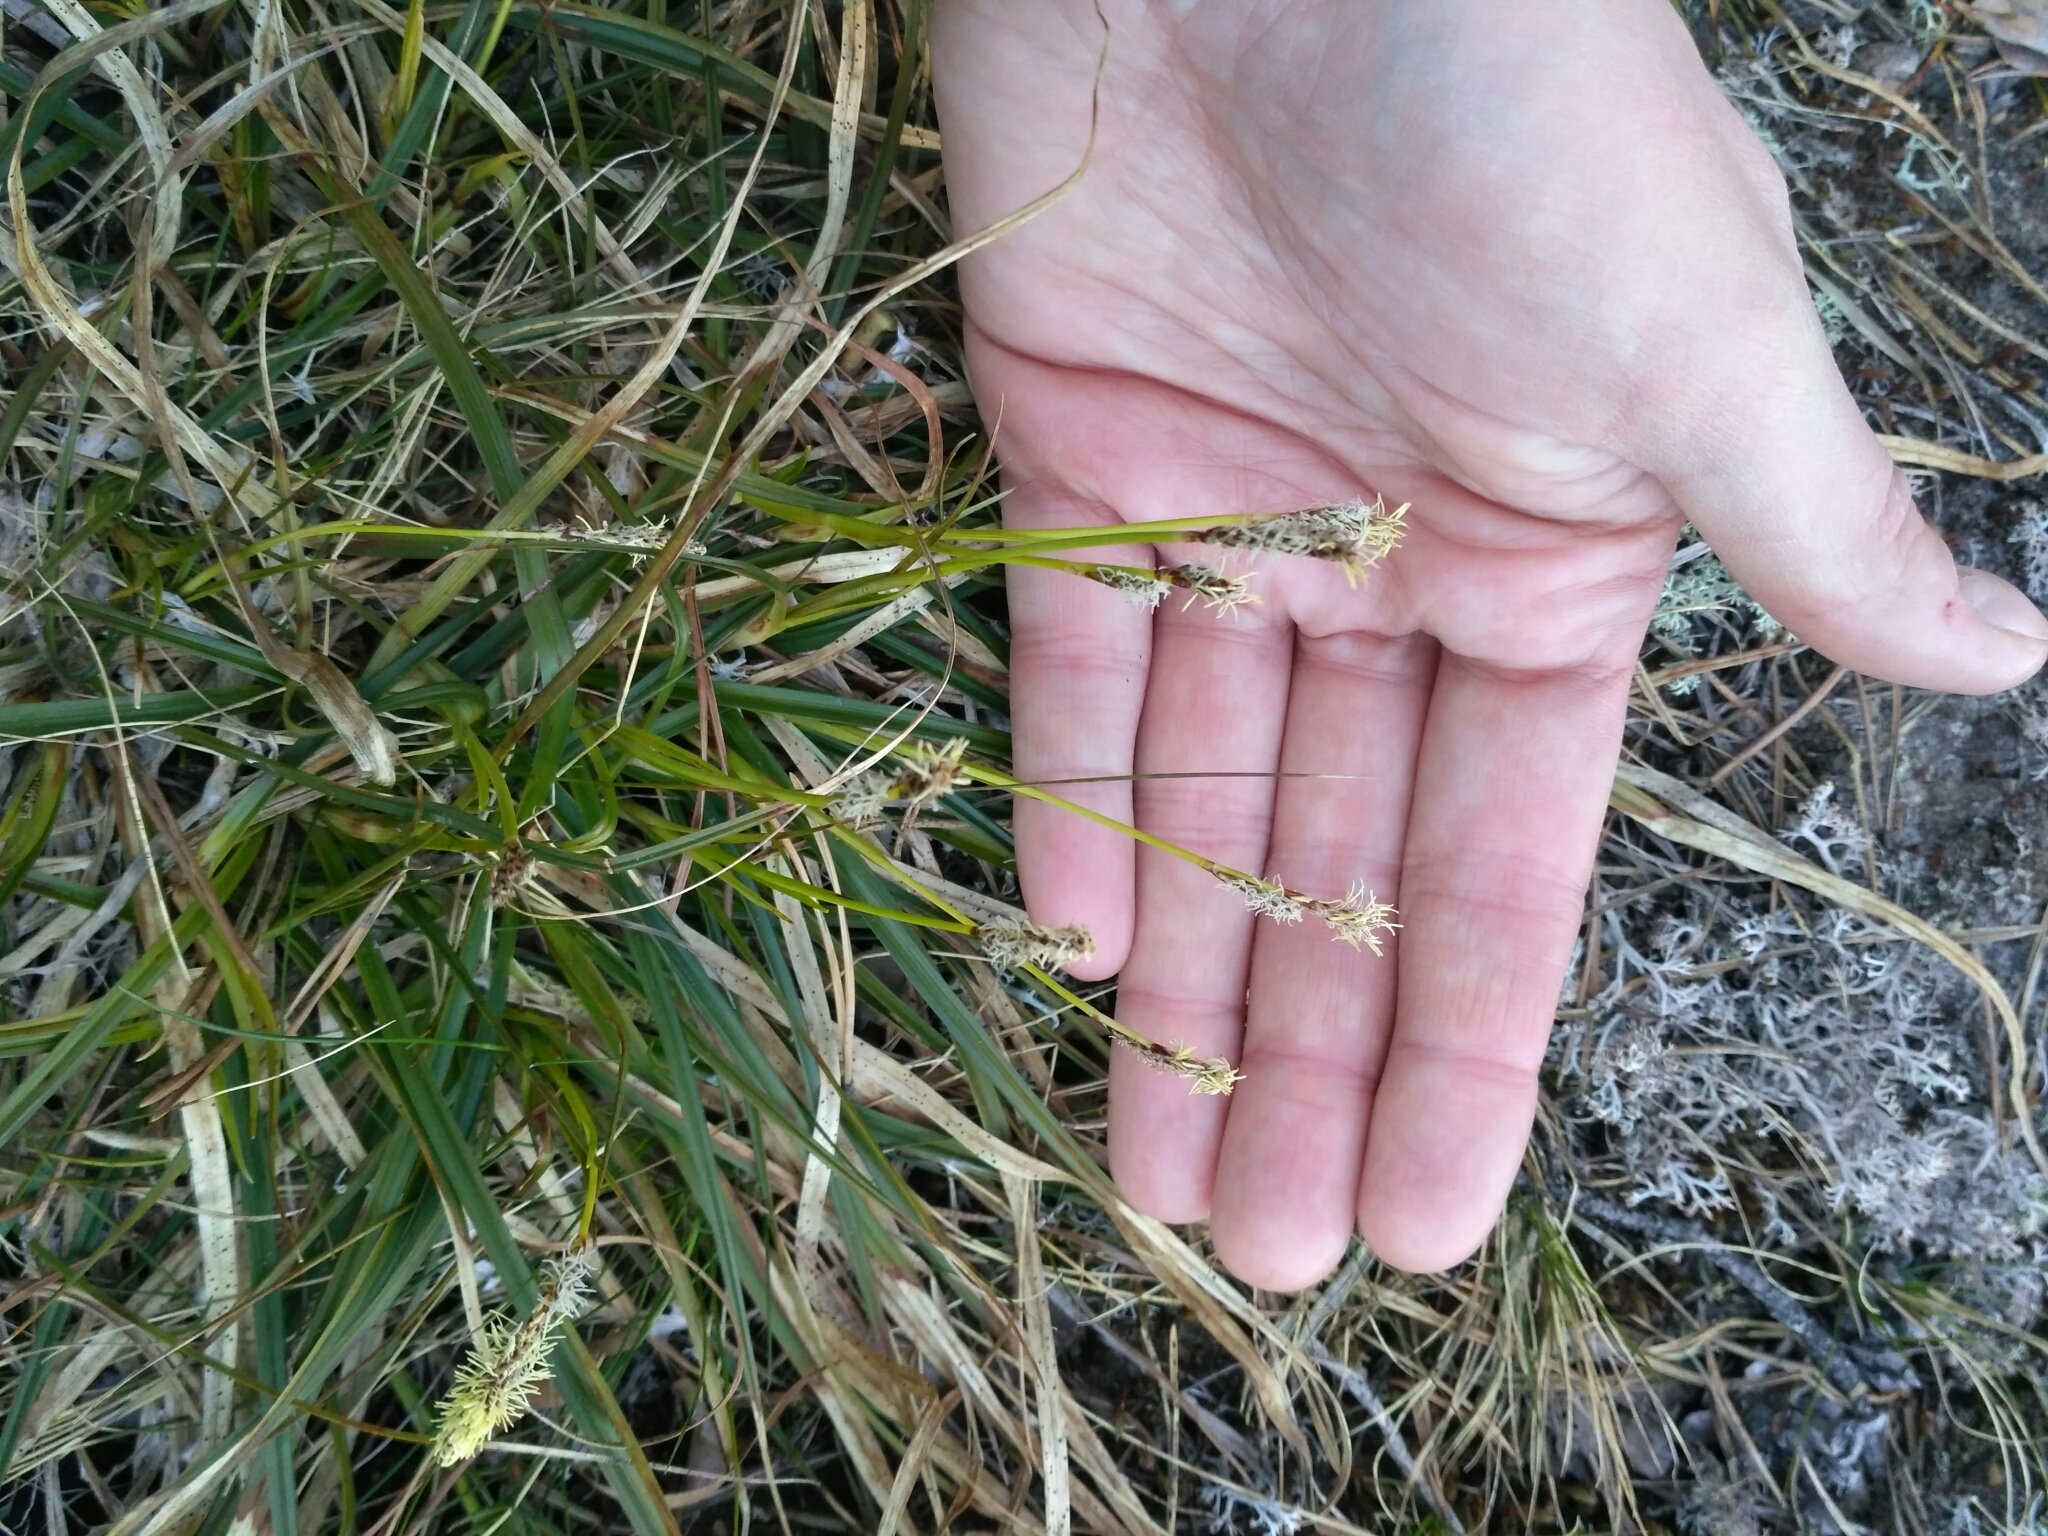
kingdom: Plantae
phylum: Tracheophyta
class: Liliopsida
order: Poales
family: Cyperaceae
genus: Carex
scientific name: Carex ericetorum
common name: Rare spring-sedge
